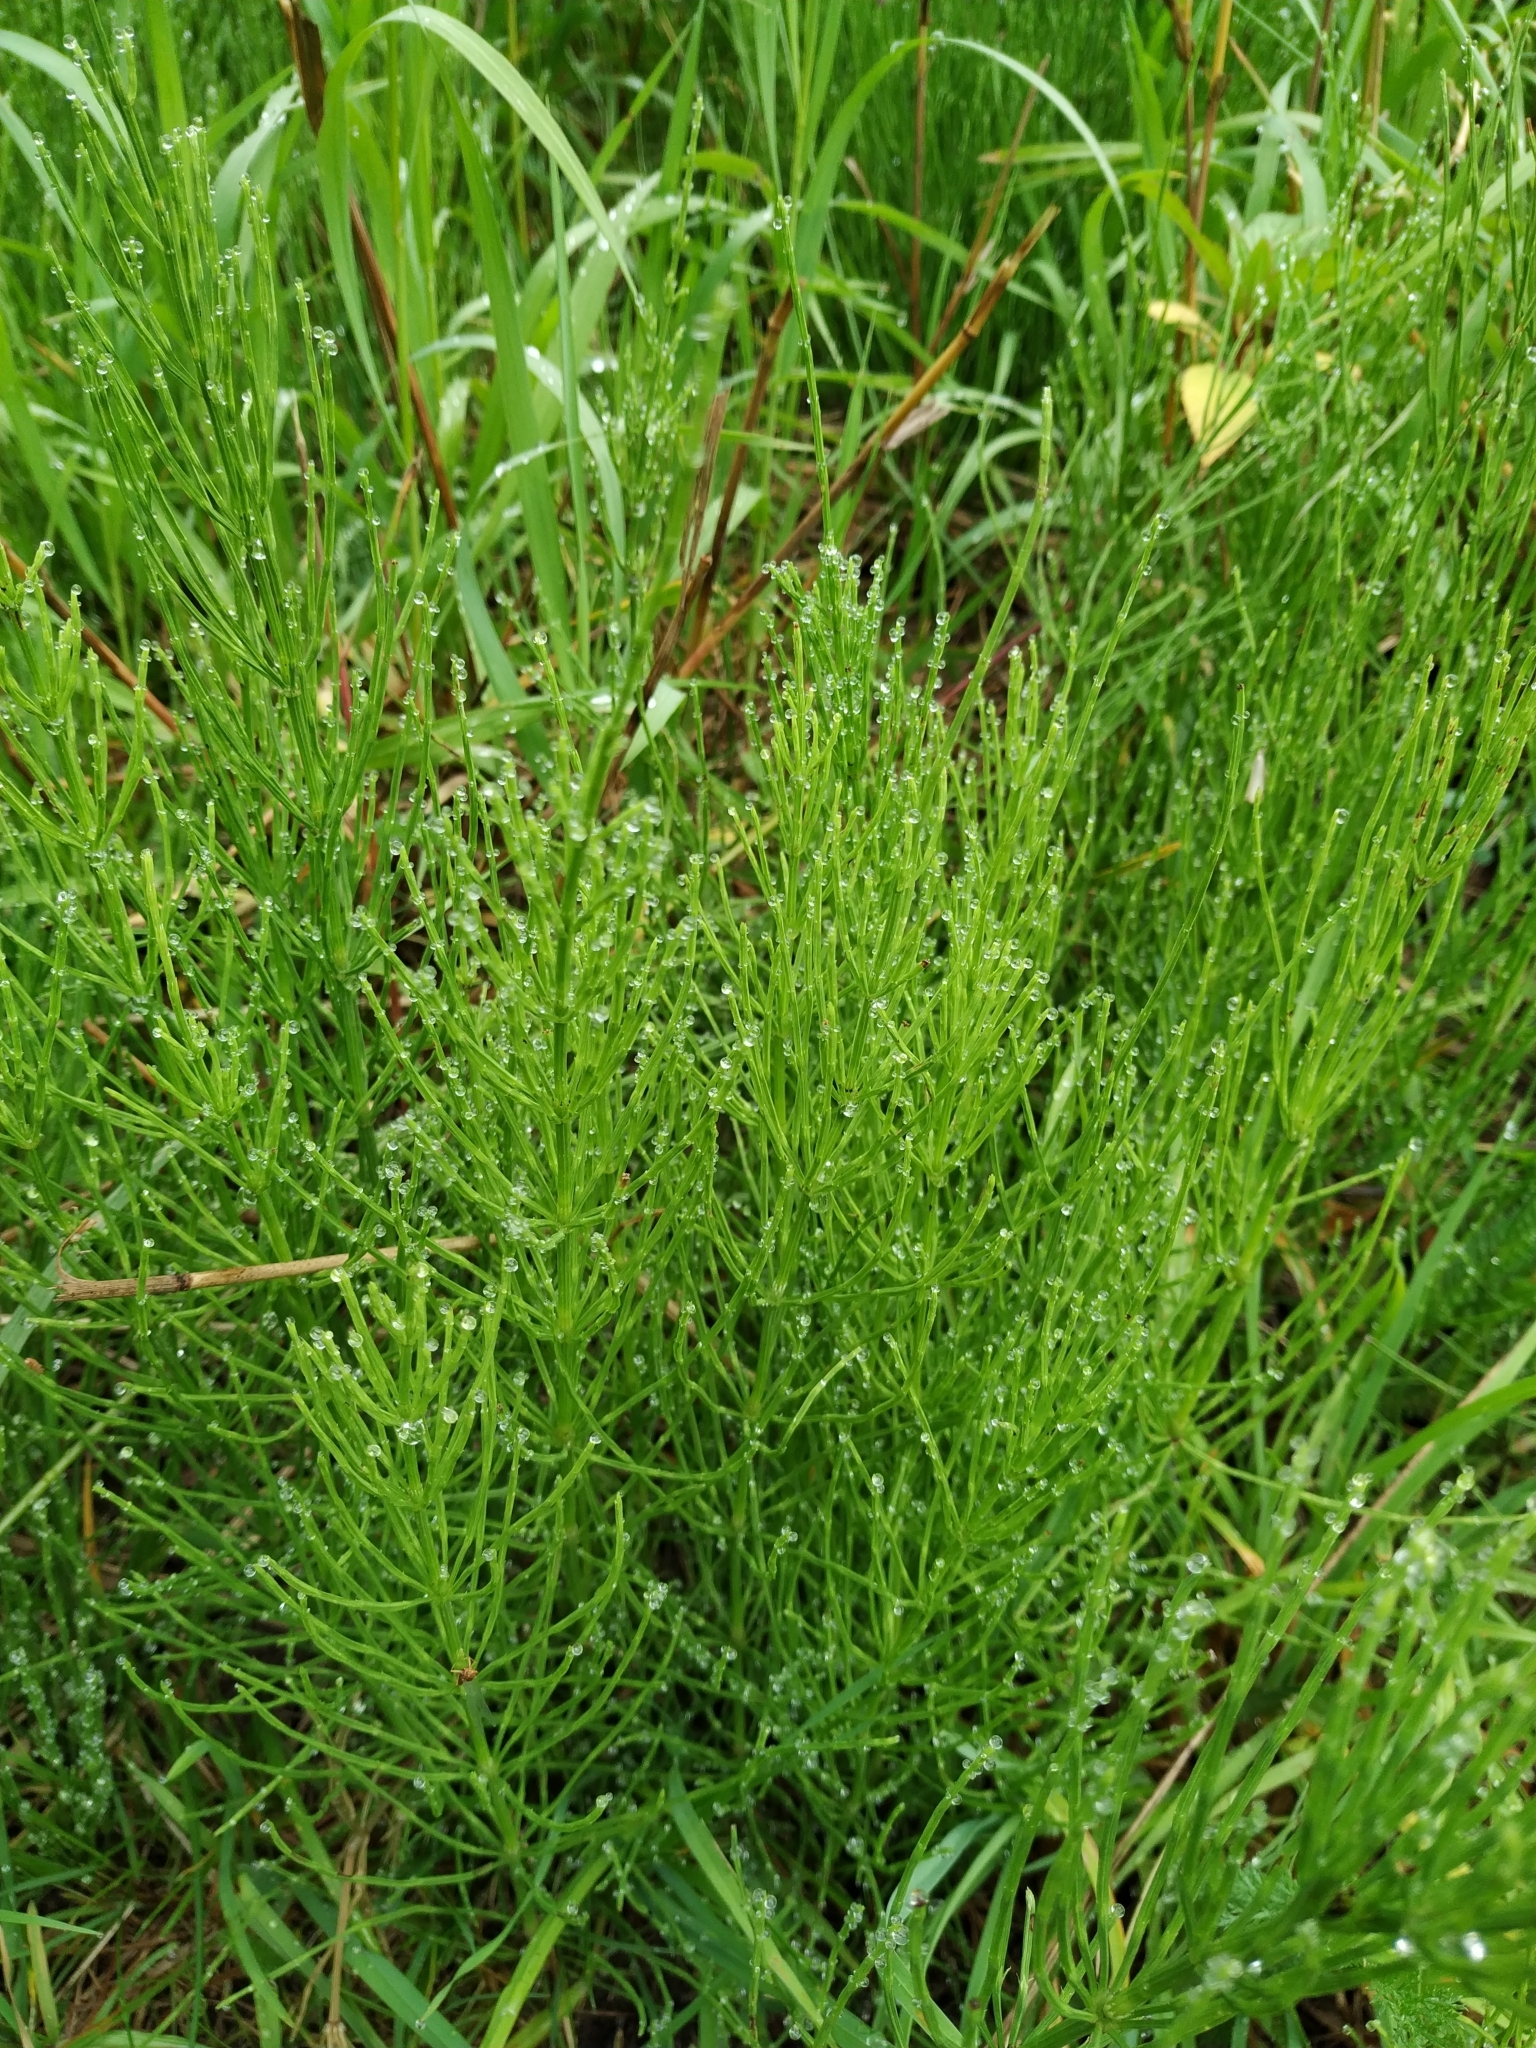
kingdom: Plantae
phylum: Tracheophyta
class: Polypodiopsida
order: Equisetales
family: Equisetaceae
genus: Equisetum
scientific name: Equisetum arvense
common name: Field horsetail
